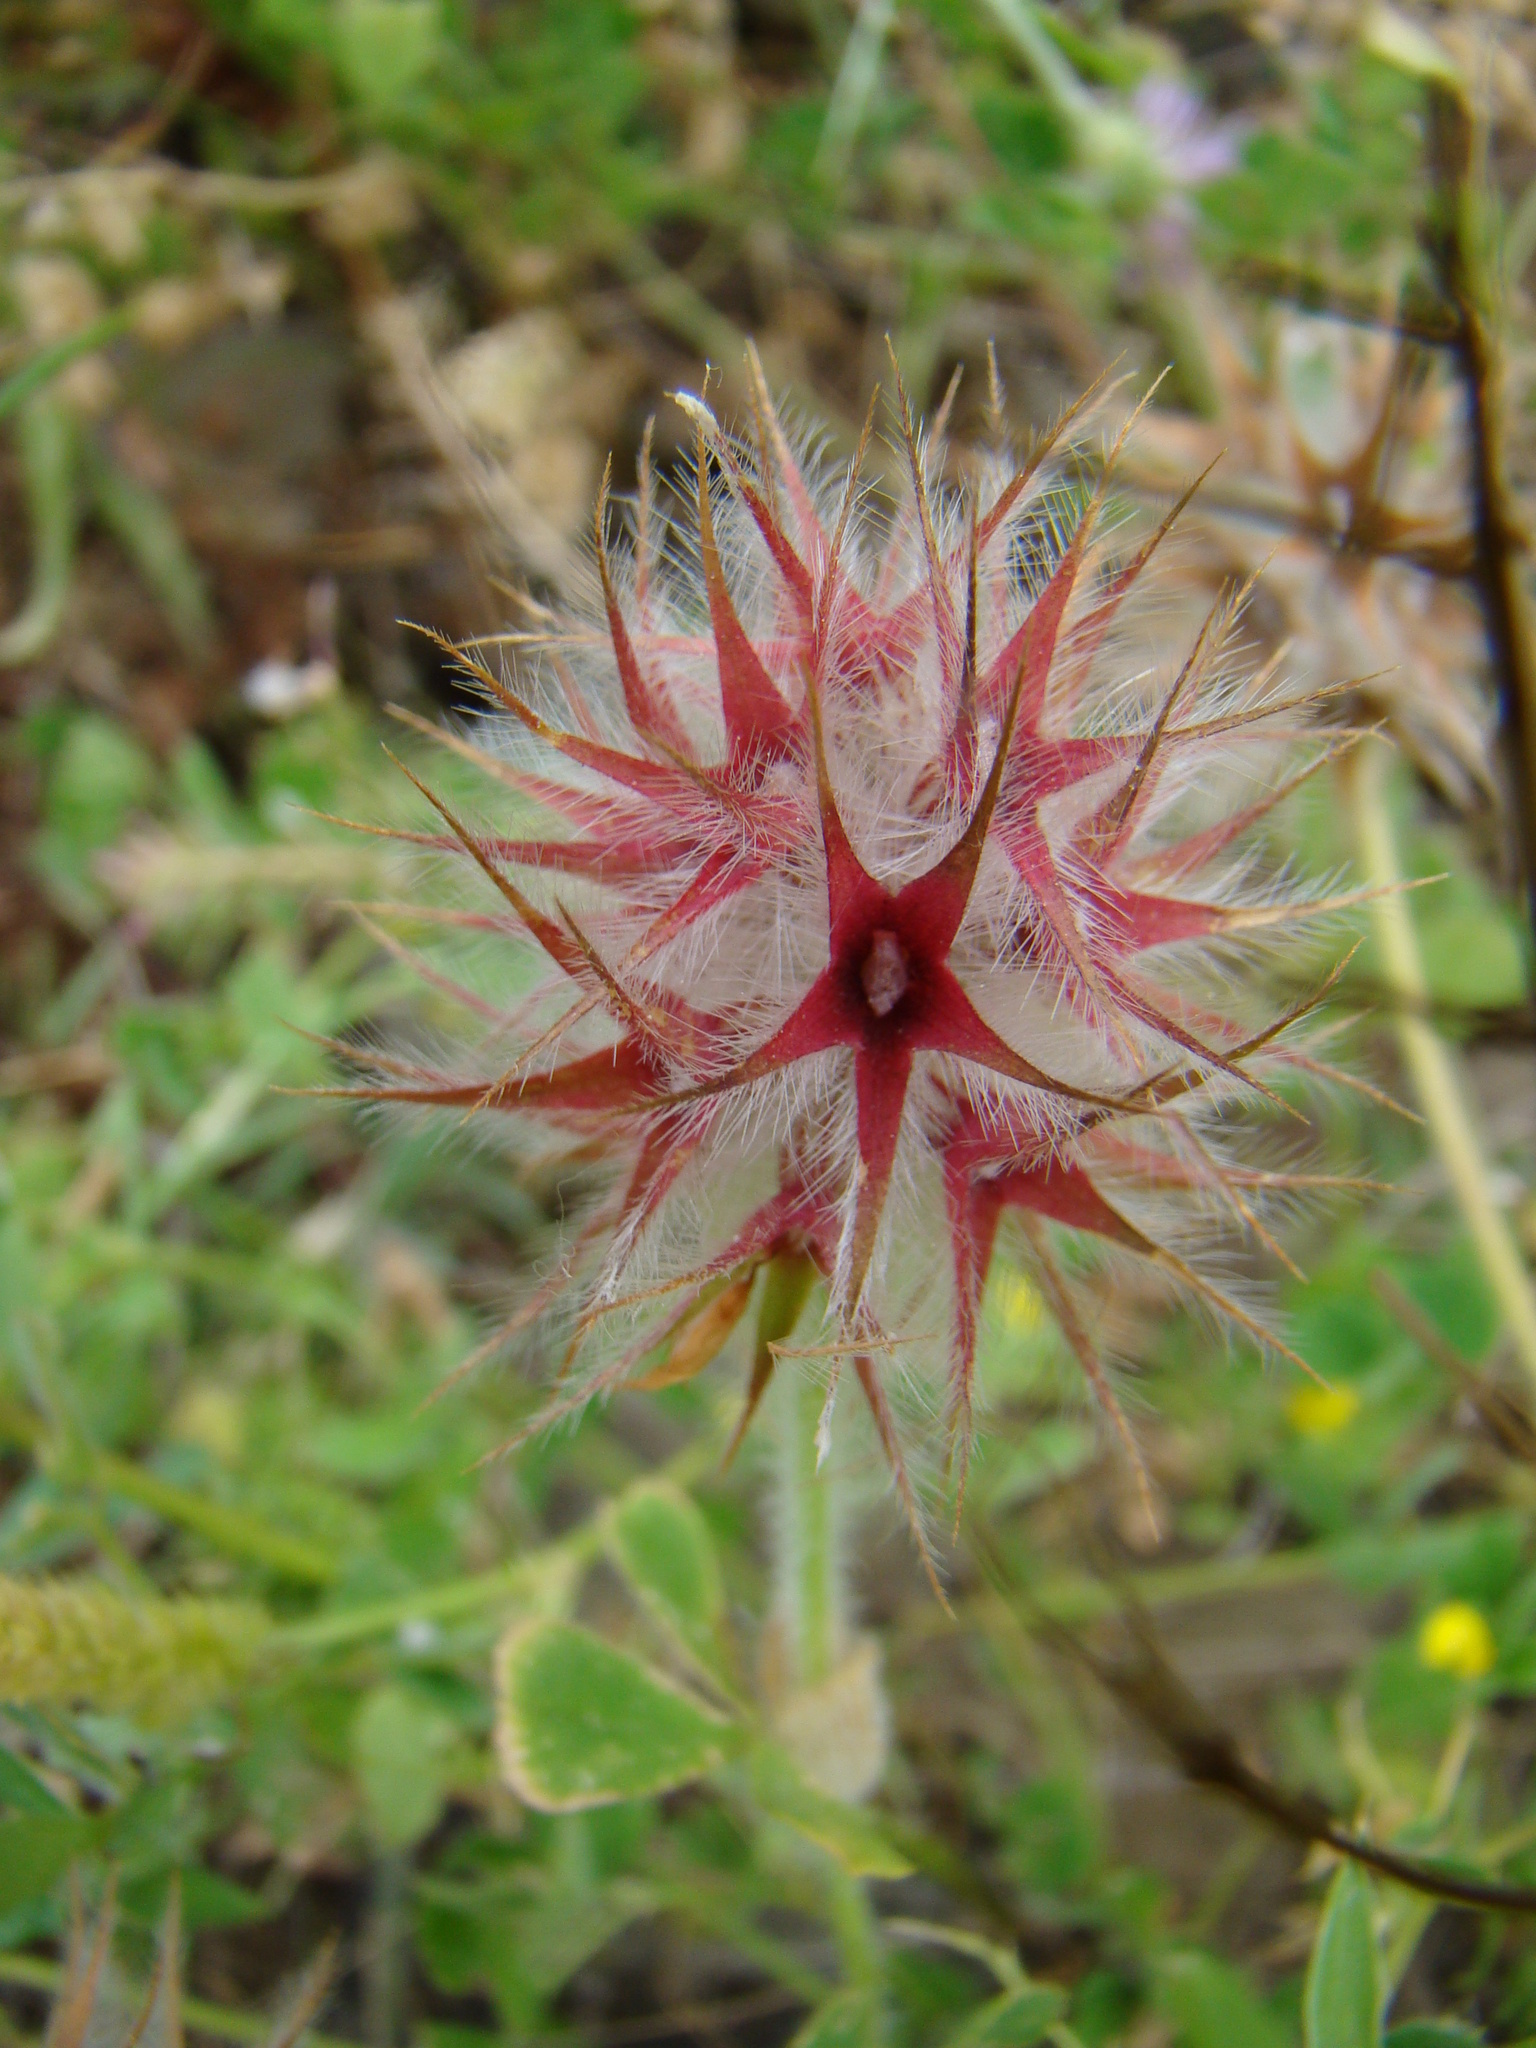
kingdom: Plantae
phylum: Tracheophyta
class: Magnoliopsida
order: Fabales
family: Fabaceae
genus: Trifolium
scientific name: Trifolium stellatum
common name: Starry clover
